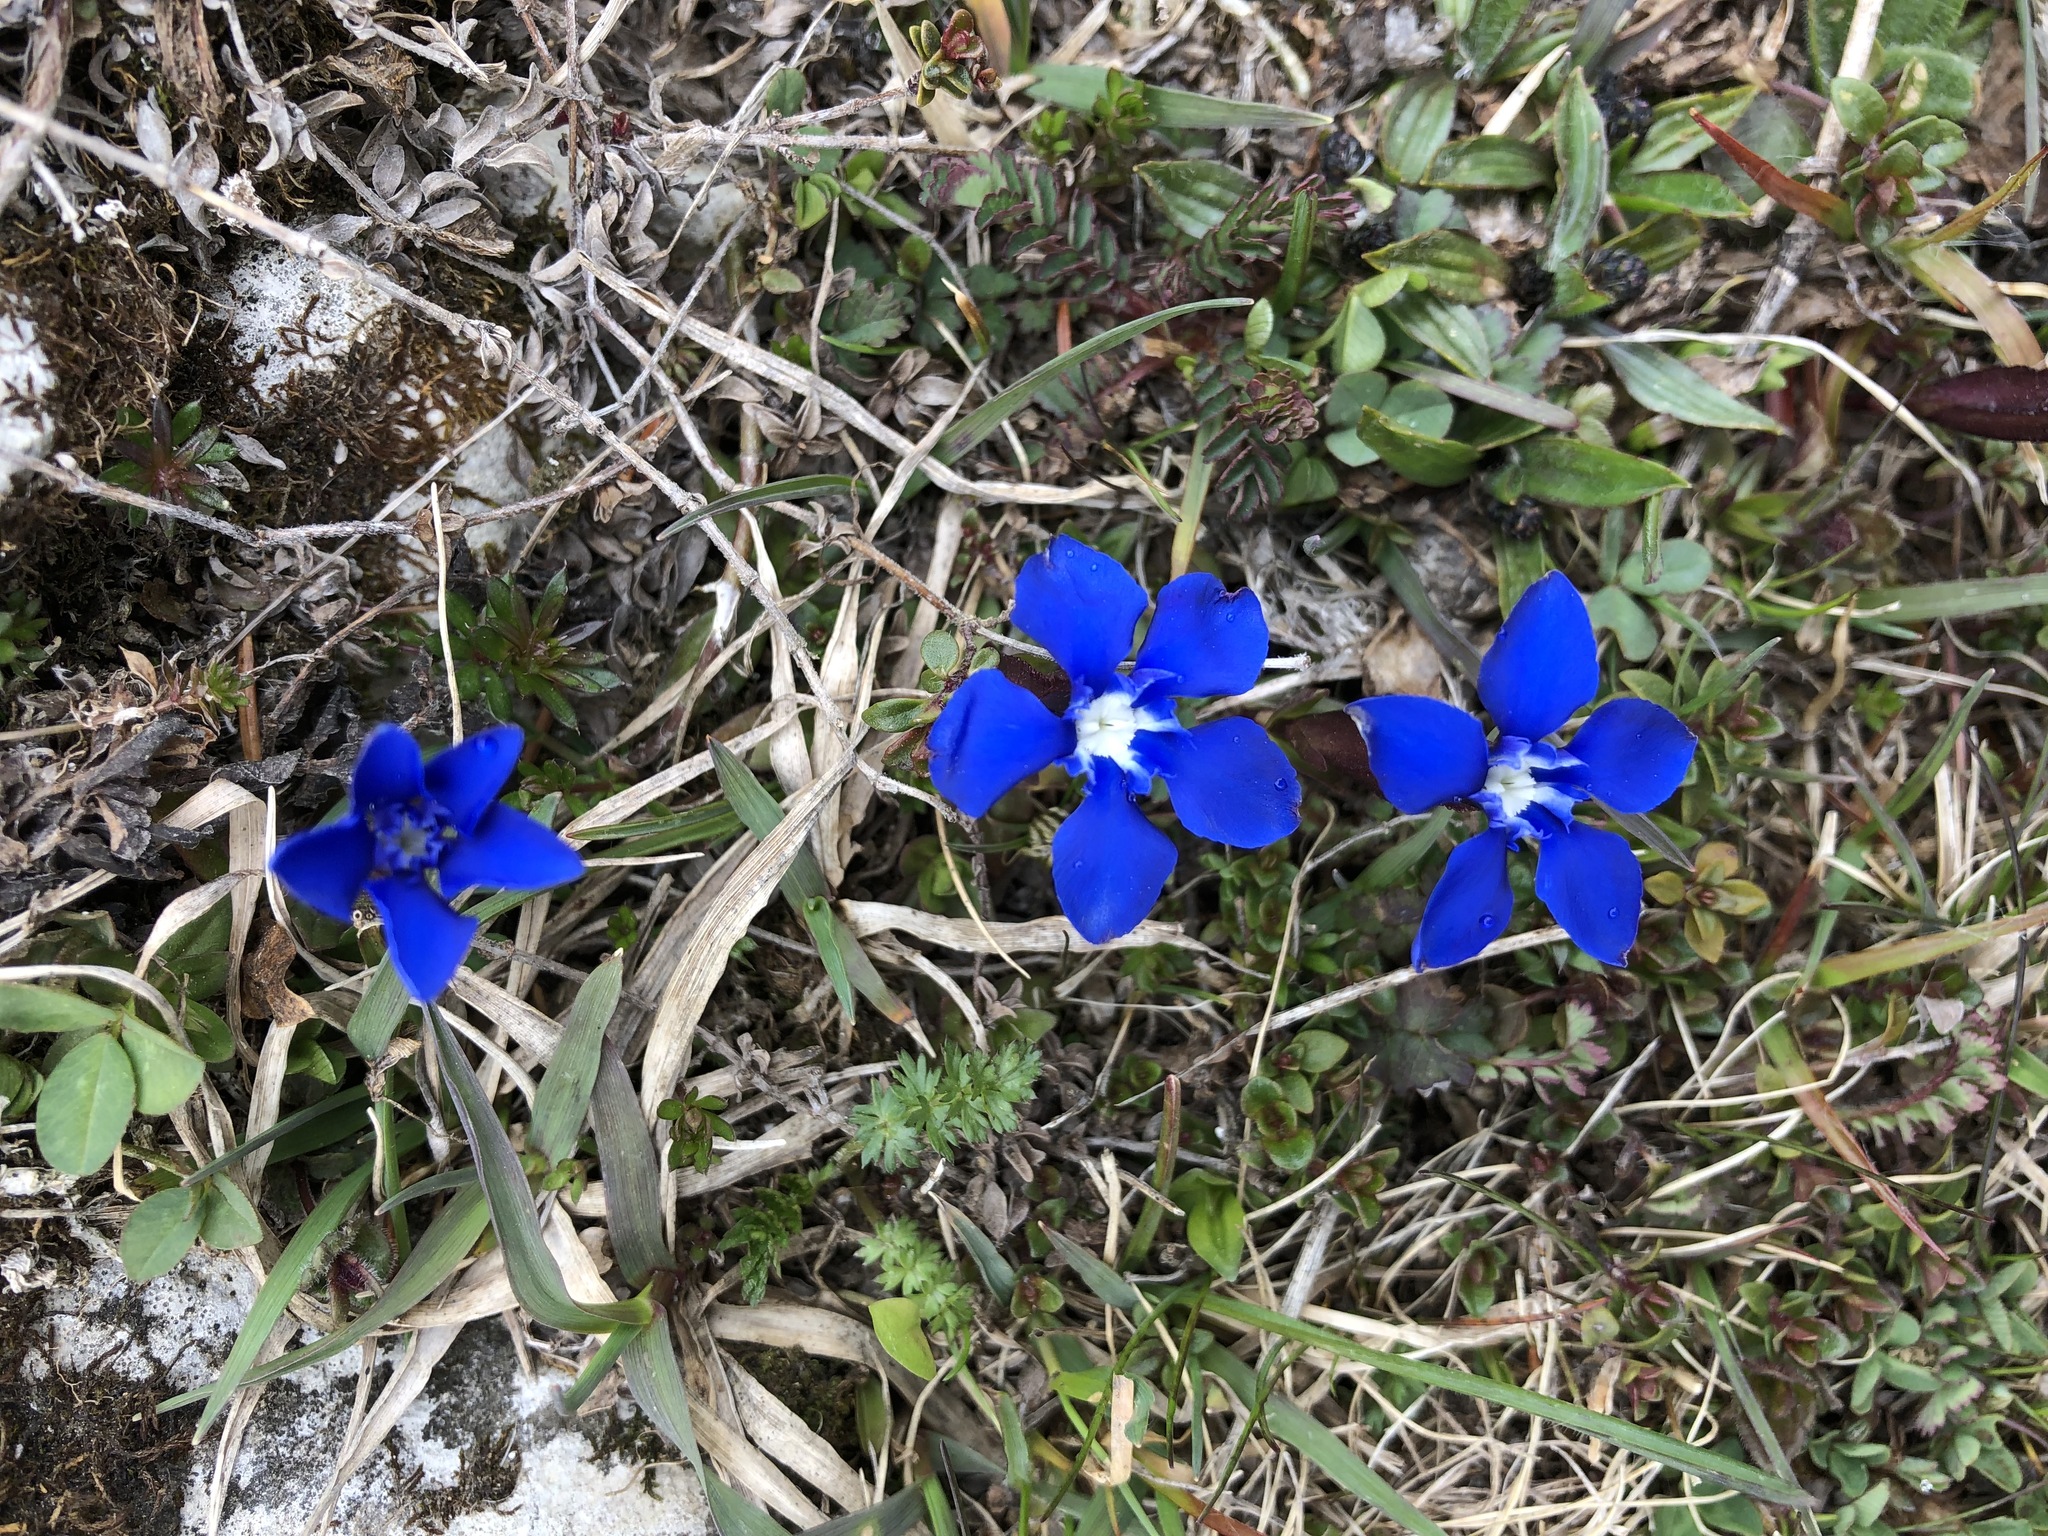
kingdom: Plantae
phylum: Tracheophyta
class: Magnoliopsida
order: Gentianales
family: Gentianaceae
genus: Gentiana
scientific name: Gentiana verna
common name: Spring gentian
